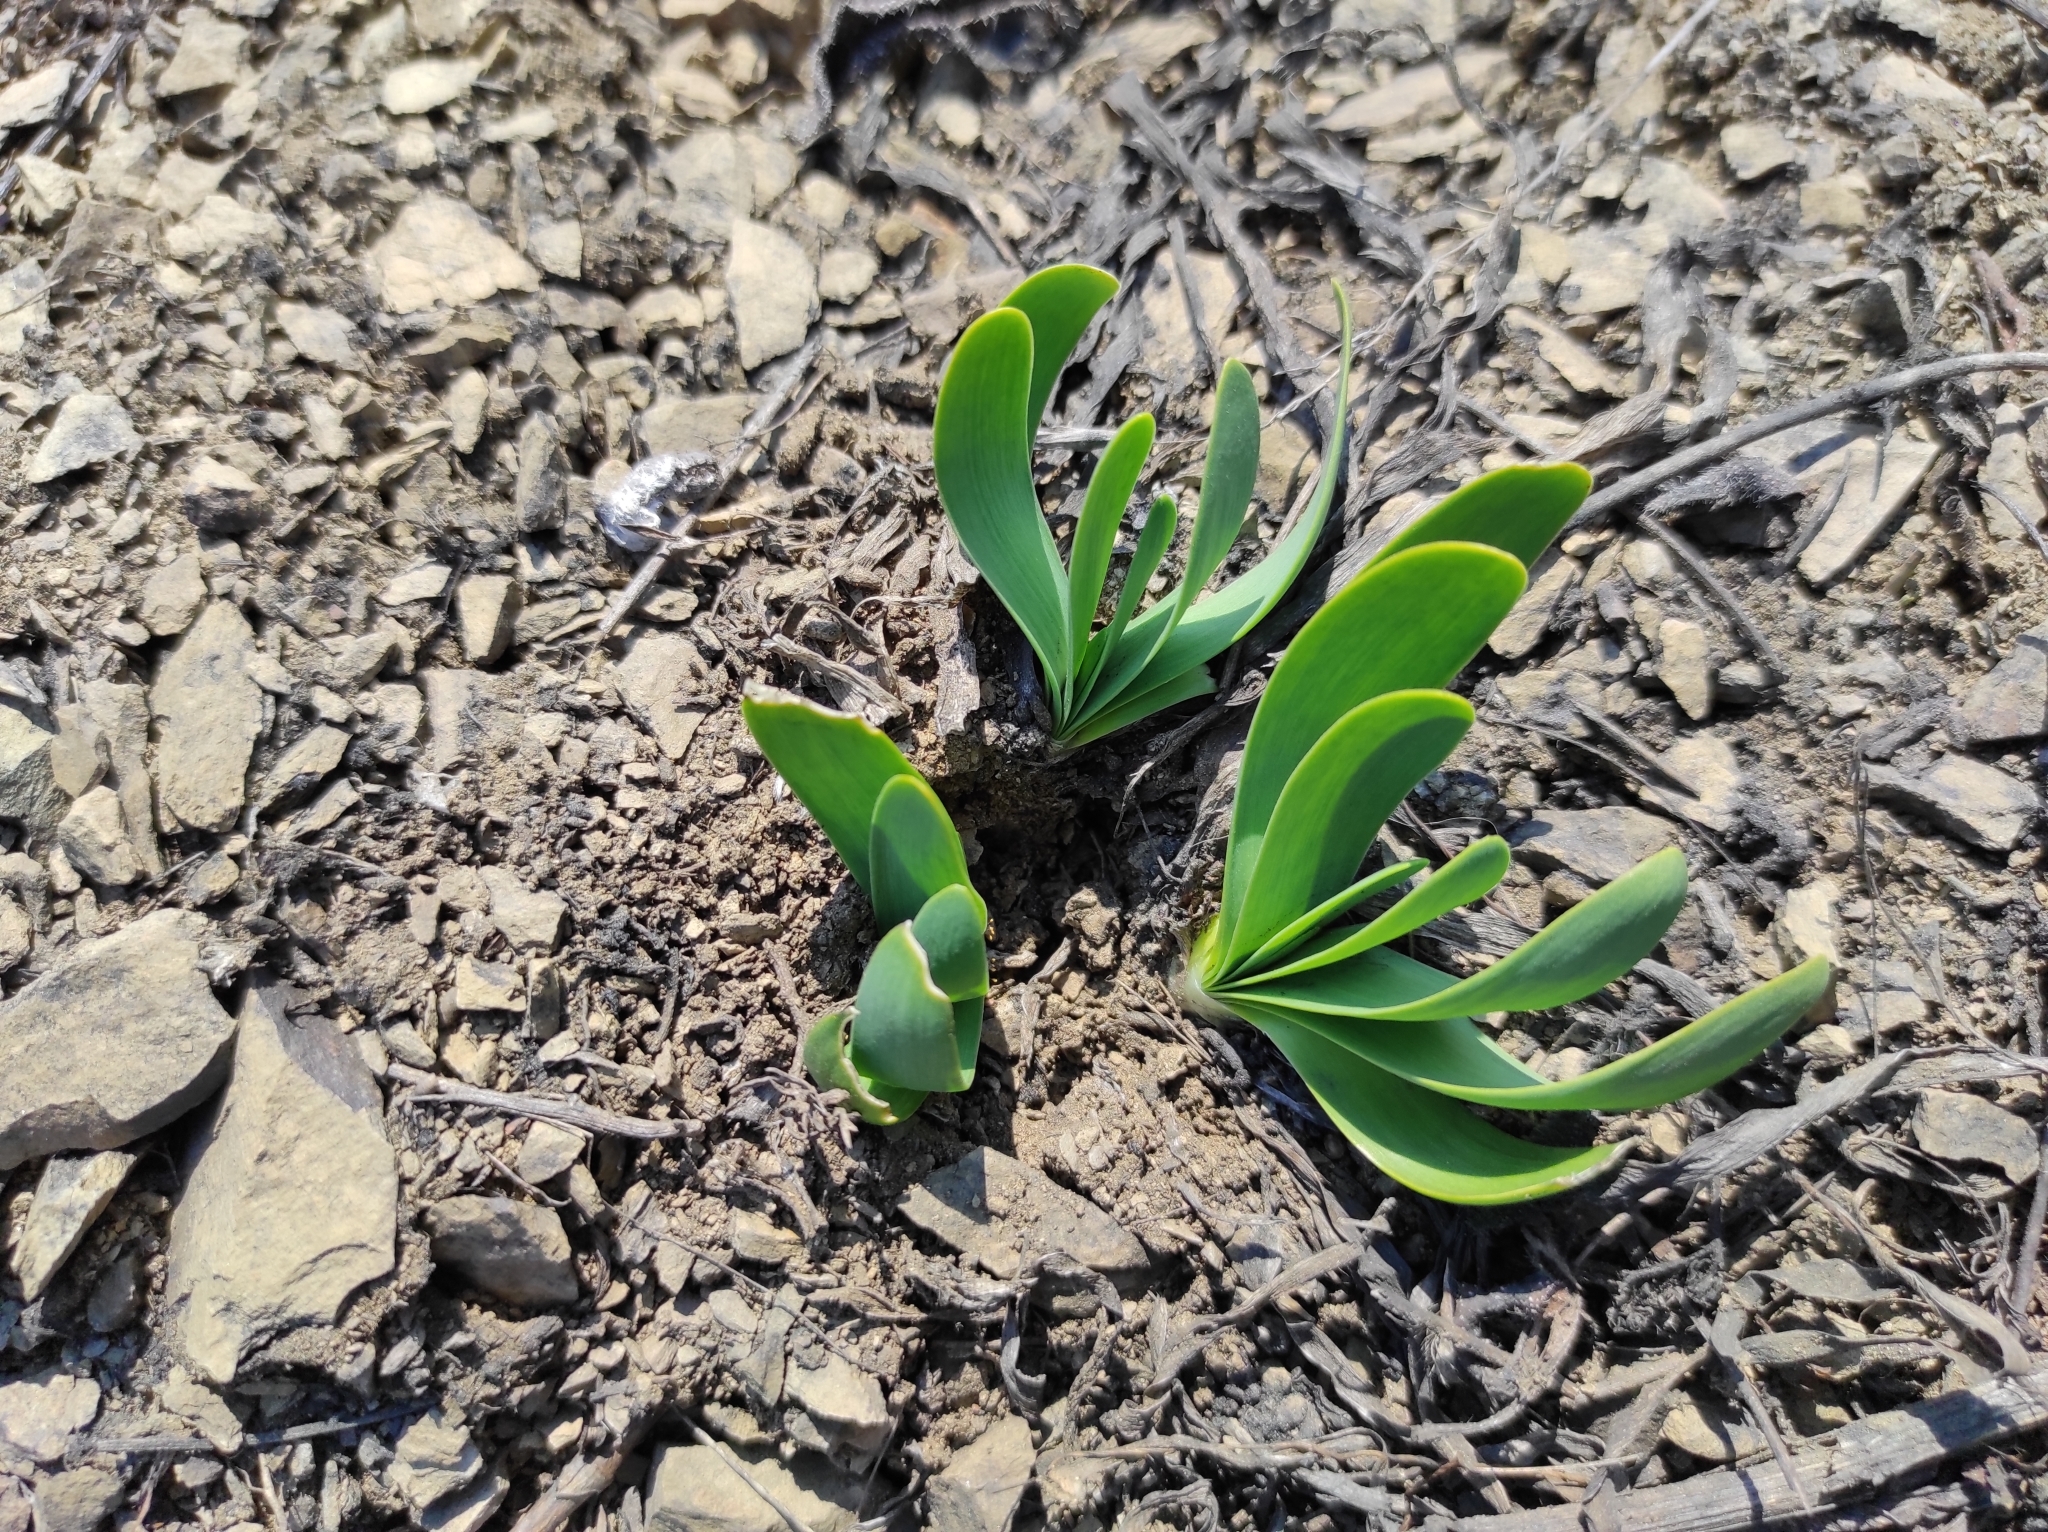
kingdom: Plantae
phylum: Tracheophyta
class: Liliopsida
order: Asparagales
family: Amaryllidaceae
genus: Allium
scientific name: Allium nutans
